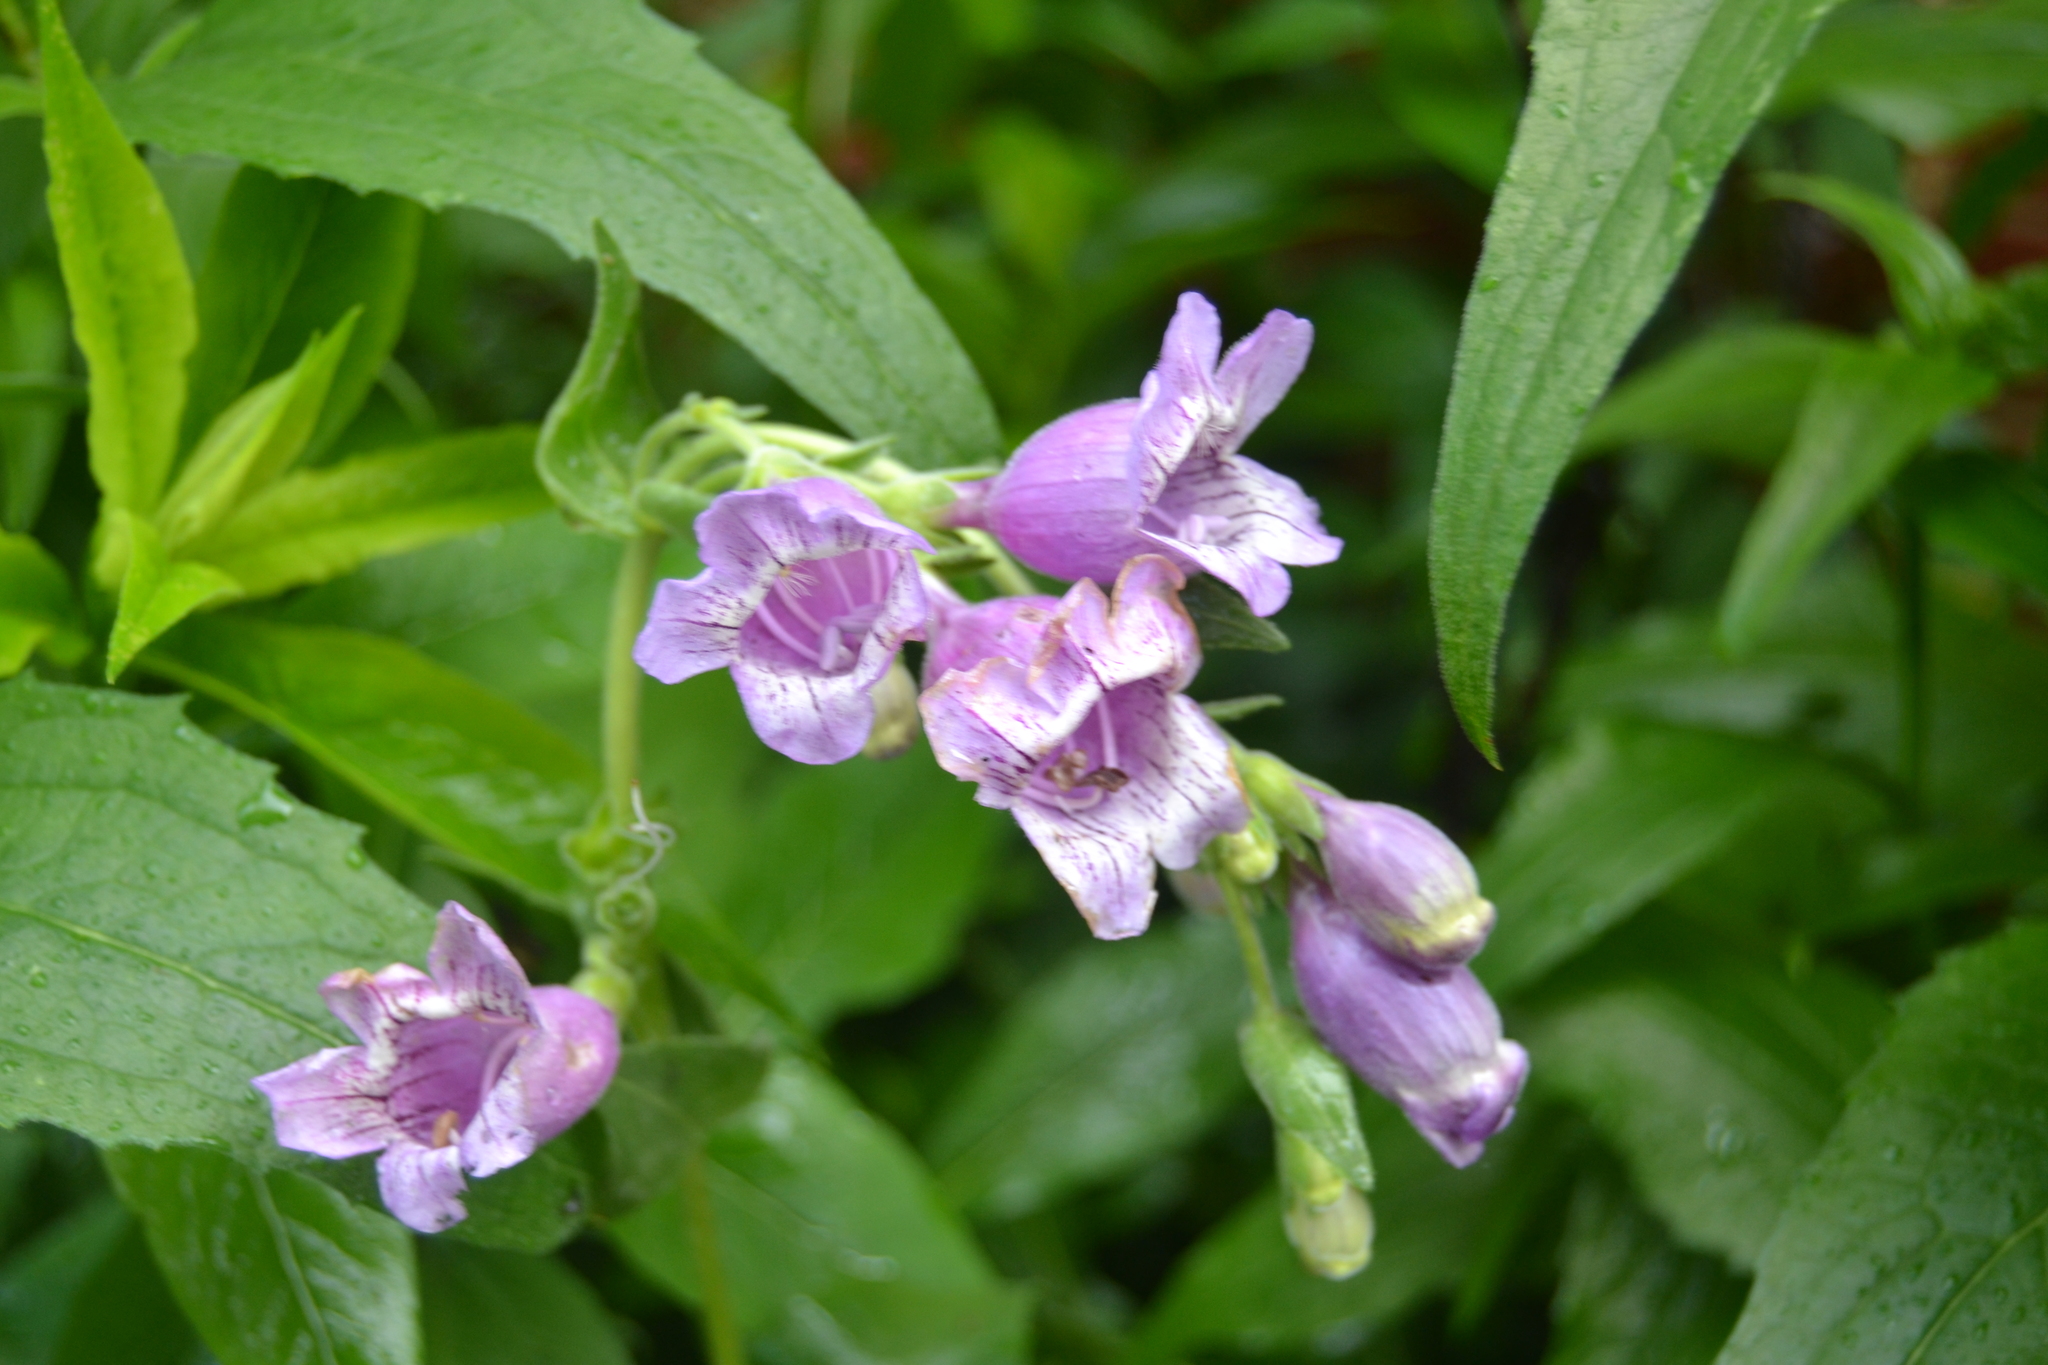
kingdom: Plantae
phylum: Tracheophyta
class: Magnoliopsida
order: Lamiales
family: Plantaginaceae
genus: Penstemon
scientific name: Penstemon cobaea
